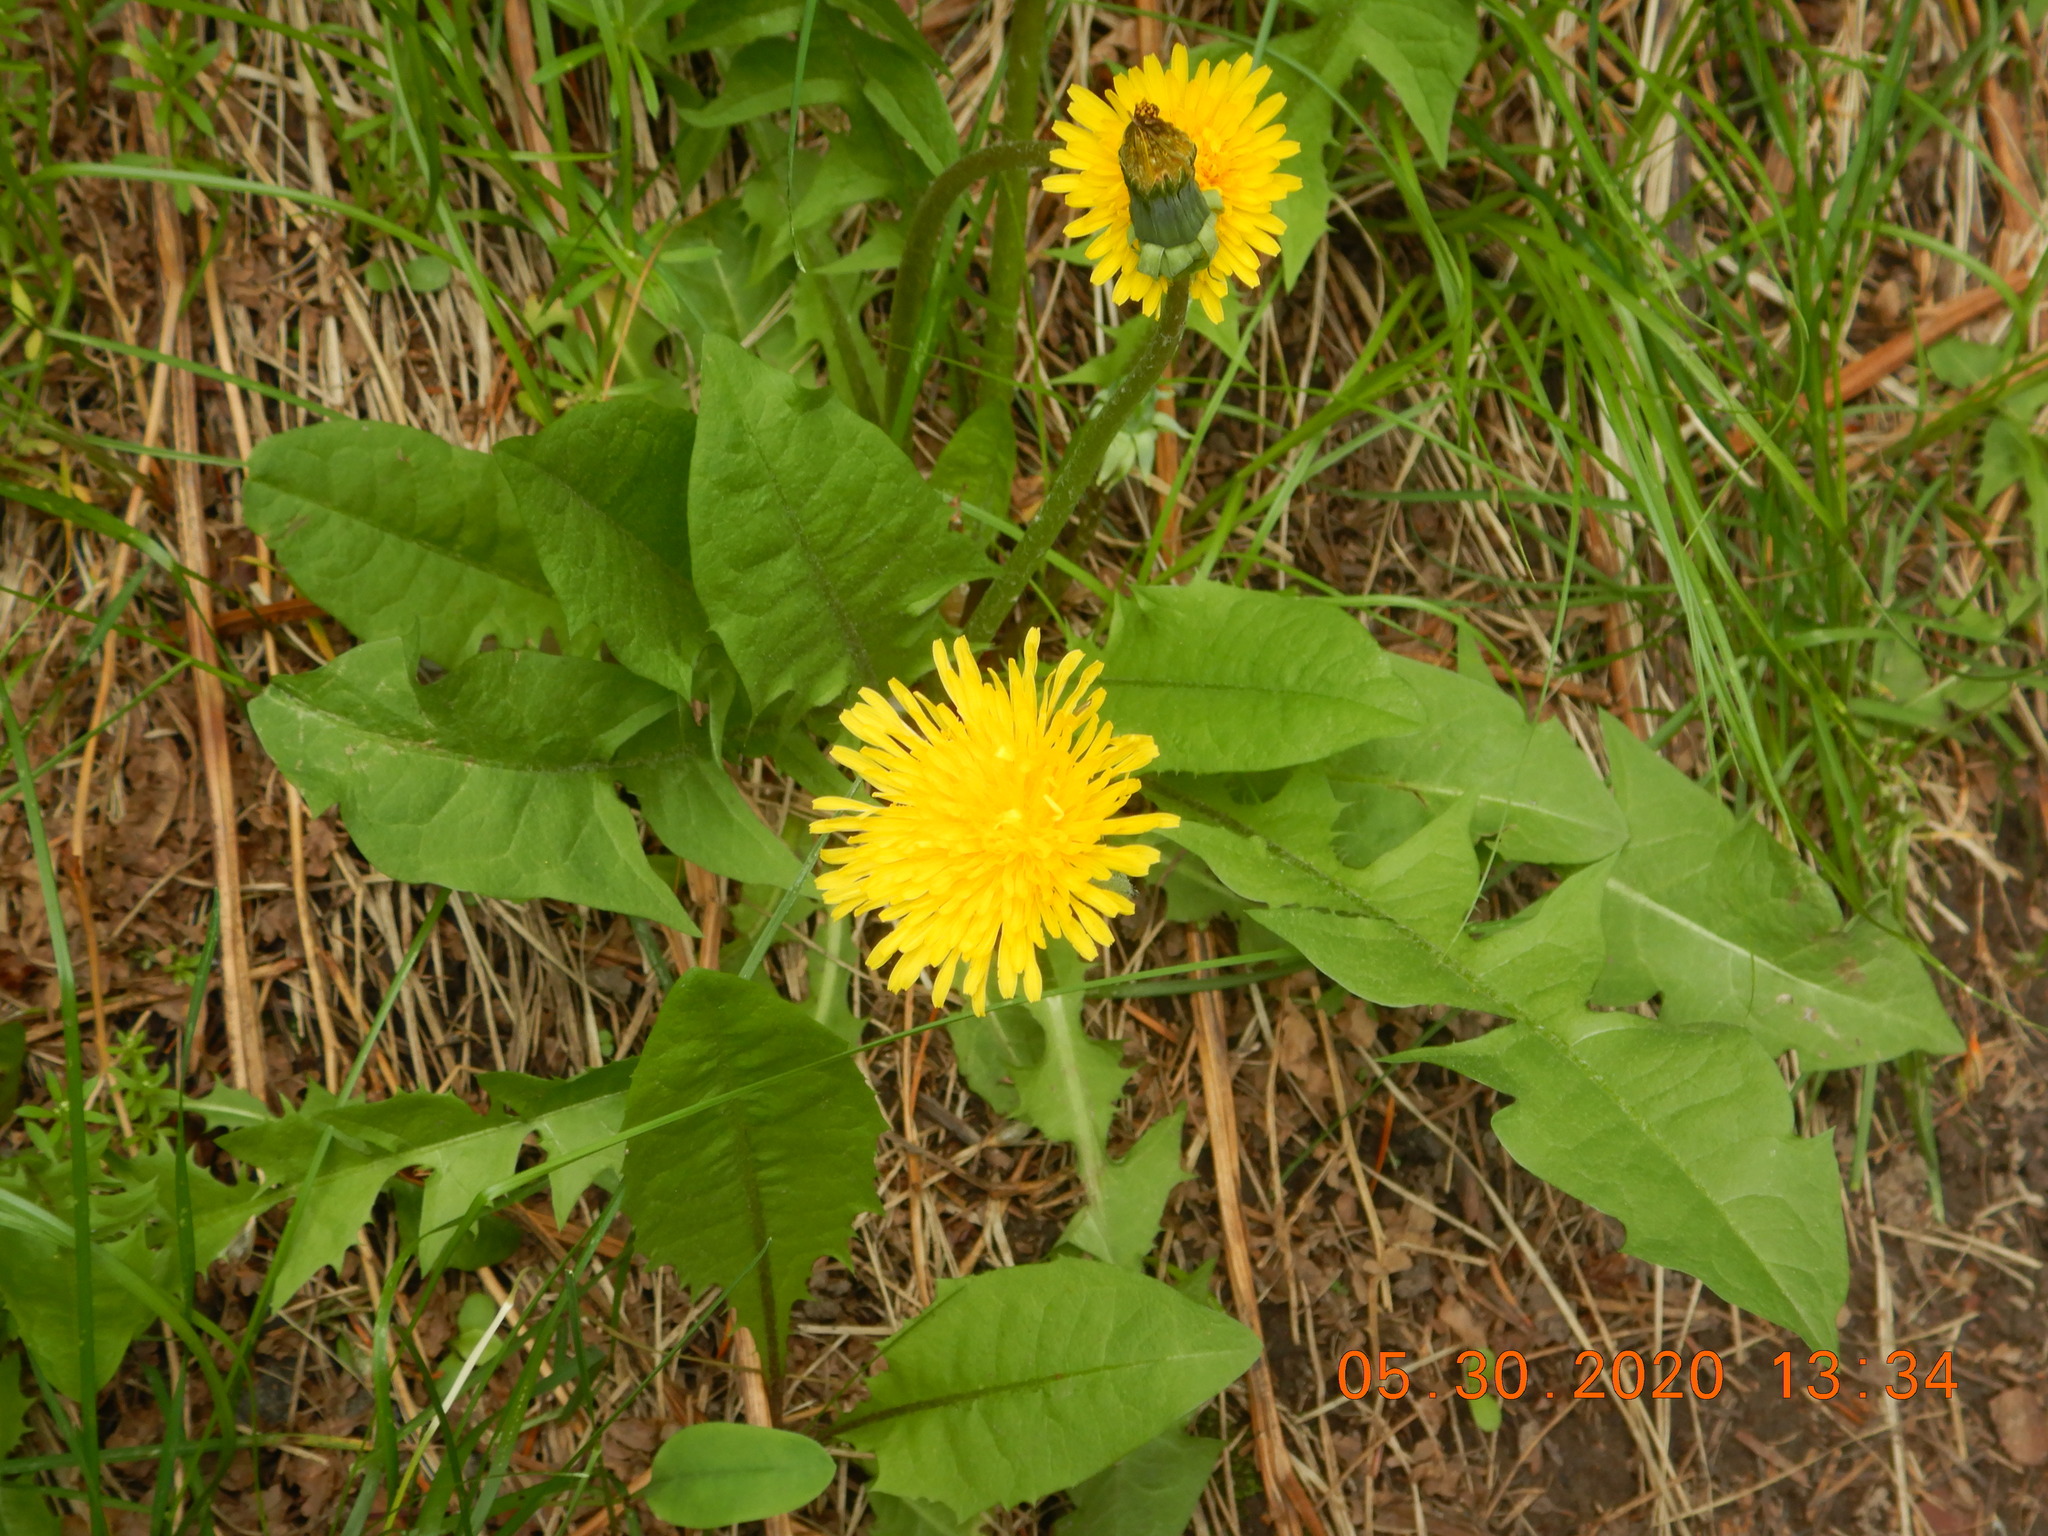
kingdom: Plantae
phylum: Tracheophyta
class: Magnoliopsida
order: Asterales
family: Asteraceae
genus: Taraxacum
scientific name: Taraxacum officinale
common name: Common dandelion
